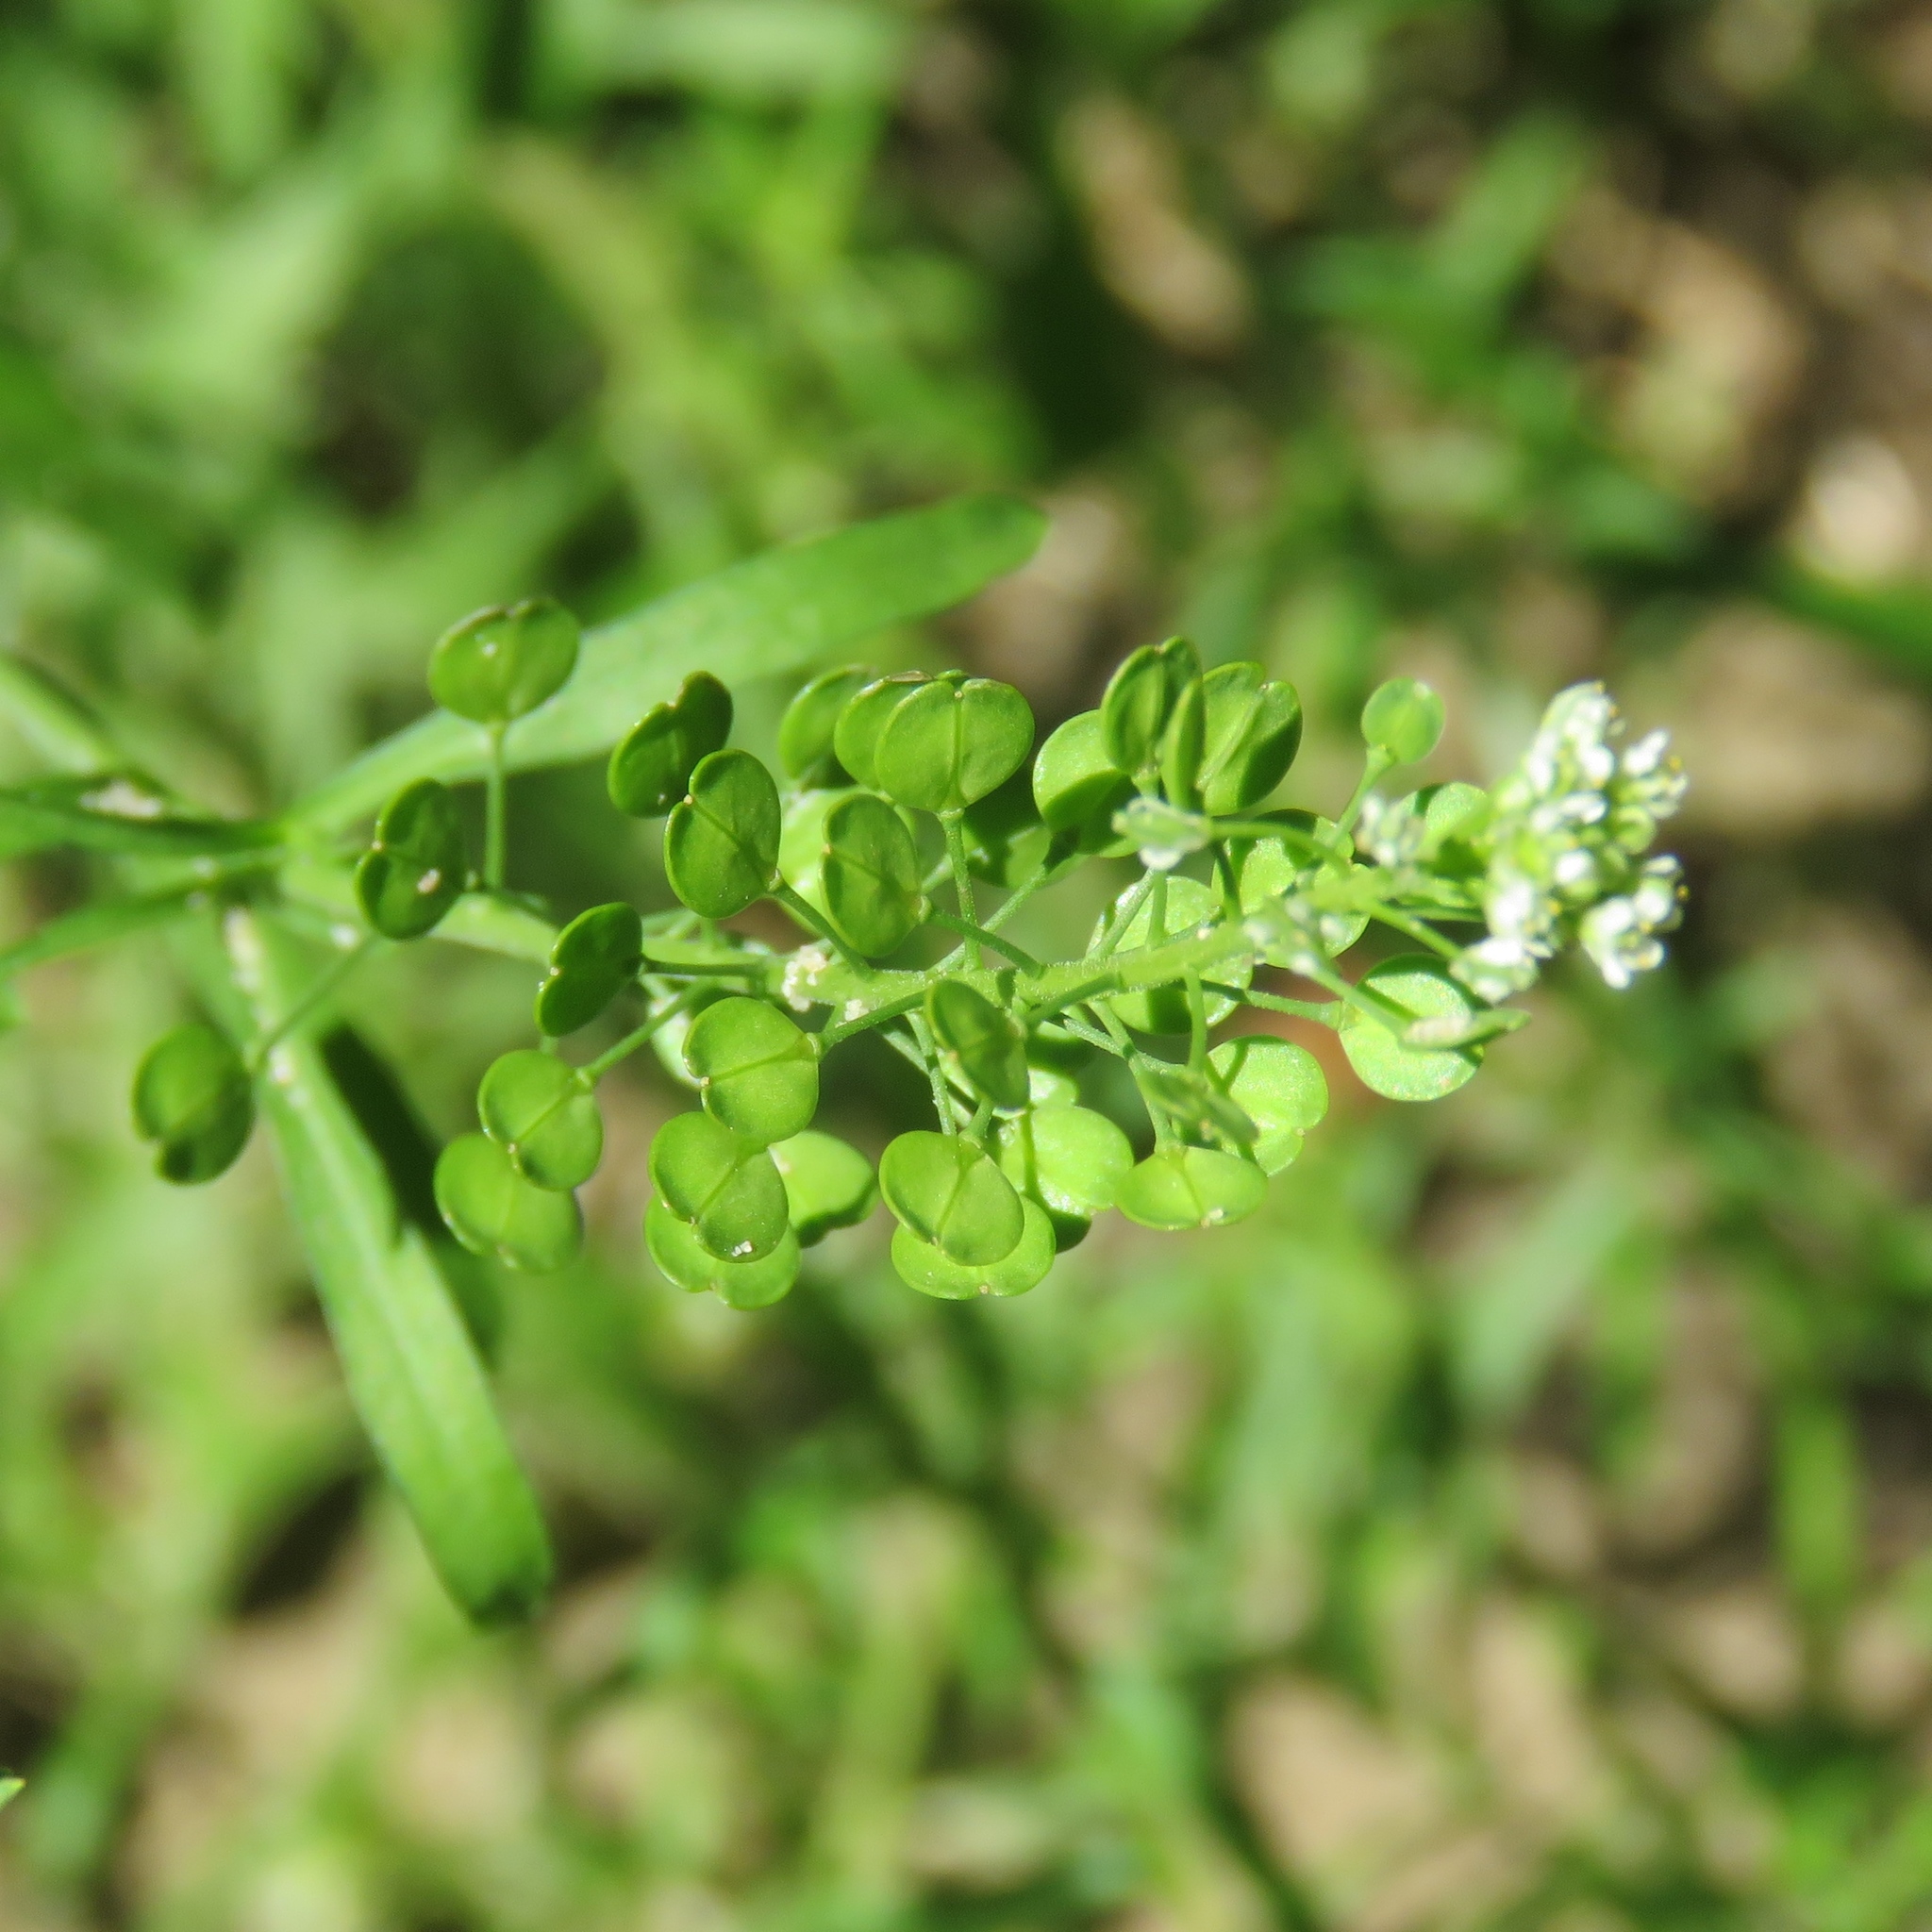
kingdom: Plantae
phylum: Tracheophyta
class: Magnoliopsida
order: Brassicales
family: Brassicaceae
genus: Lepidium
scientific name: Lepidium virginicum
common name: Least pepperwort
